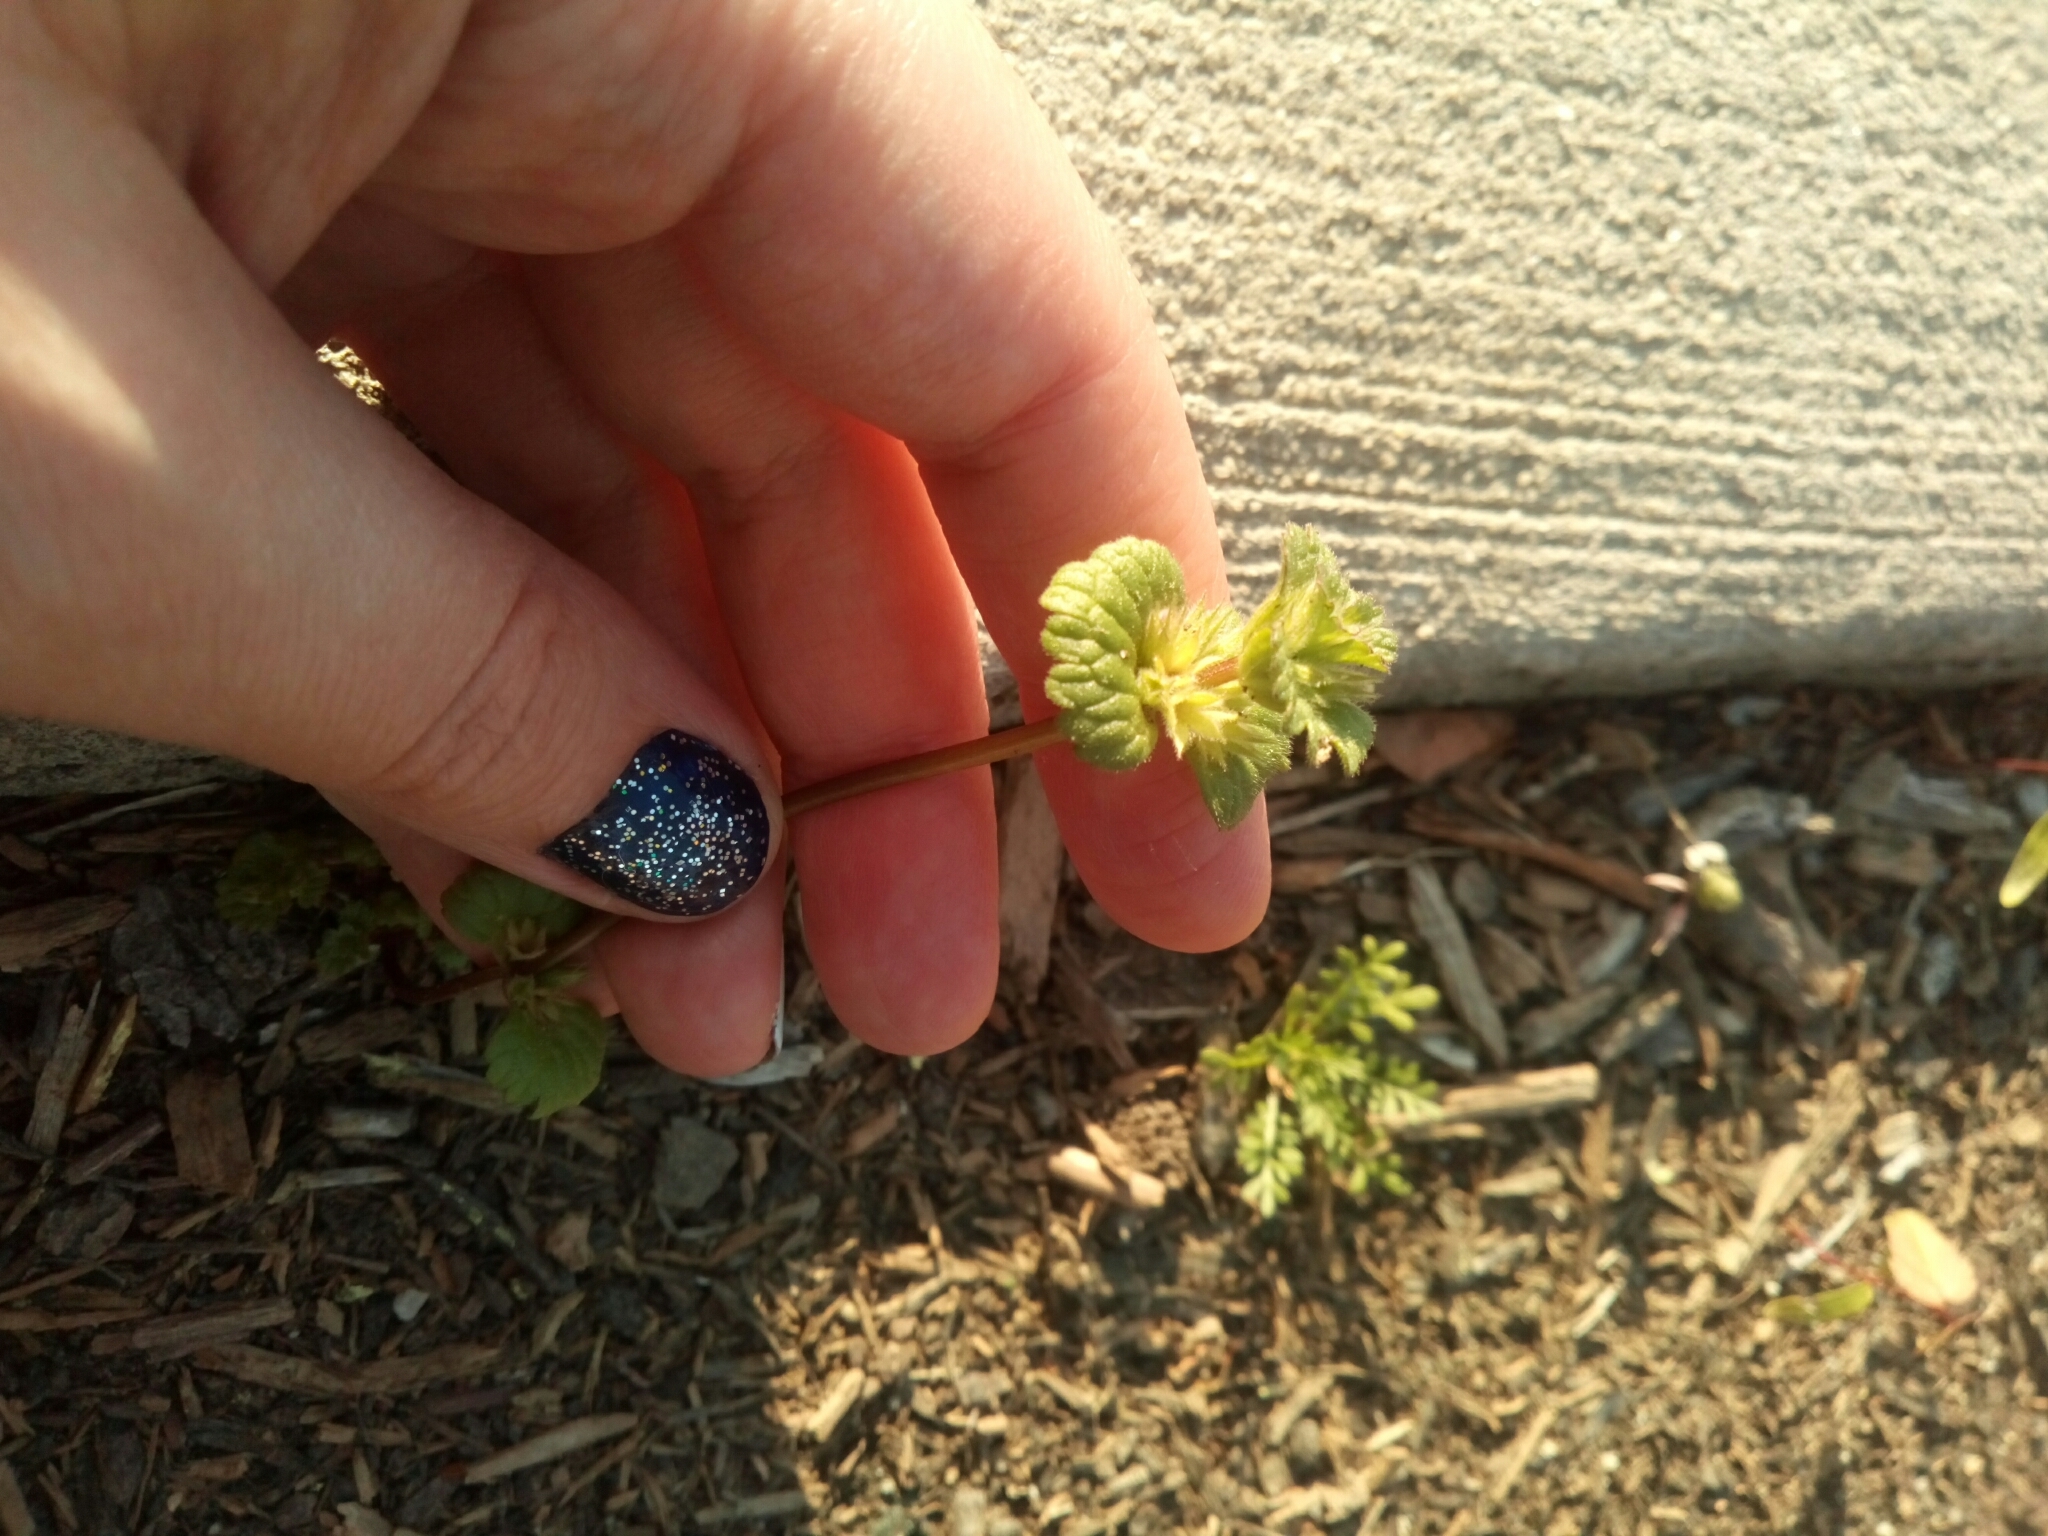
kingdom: Plantae
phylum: Tracheophyta
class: Magnoliopsida
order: Lamiales
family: Lamiaceae
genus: Lamium
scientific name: Lamium amplexicaule
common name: Henbit dead-nettle
